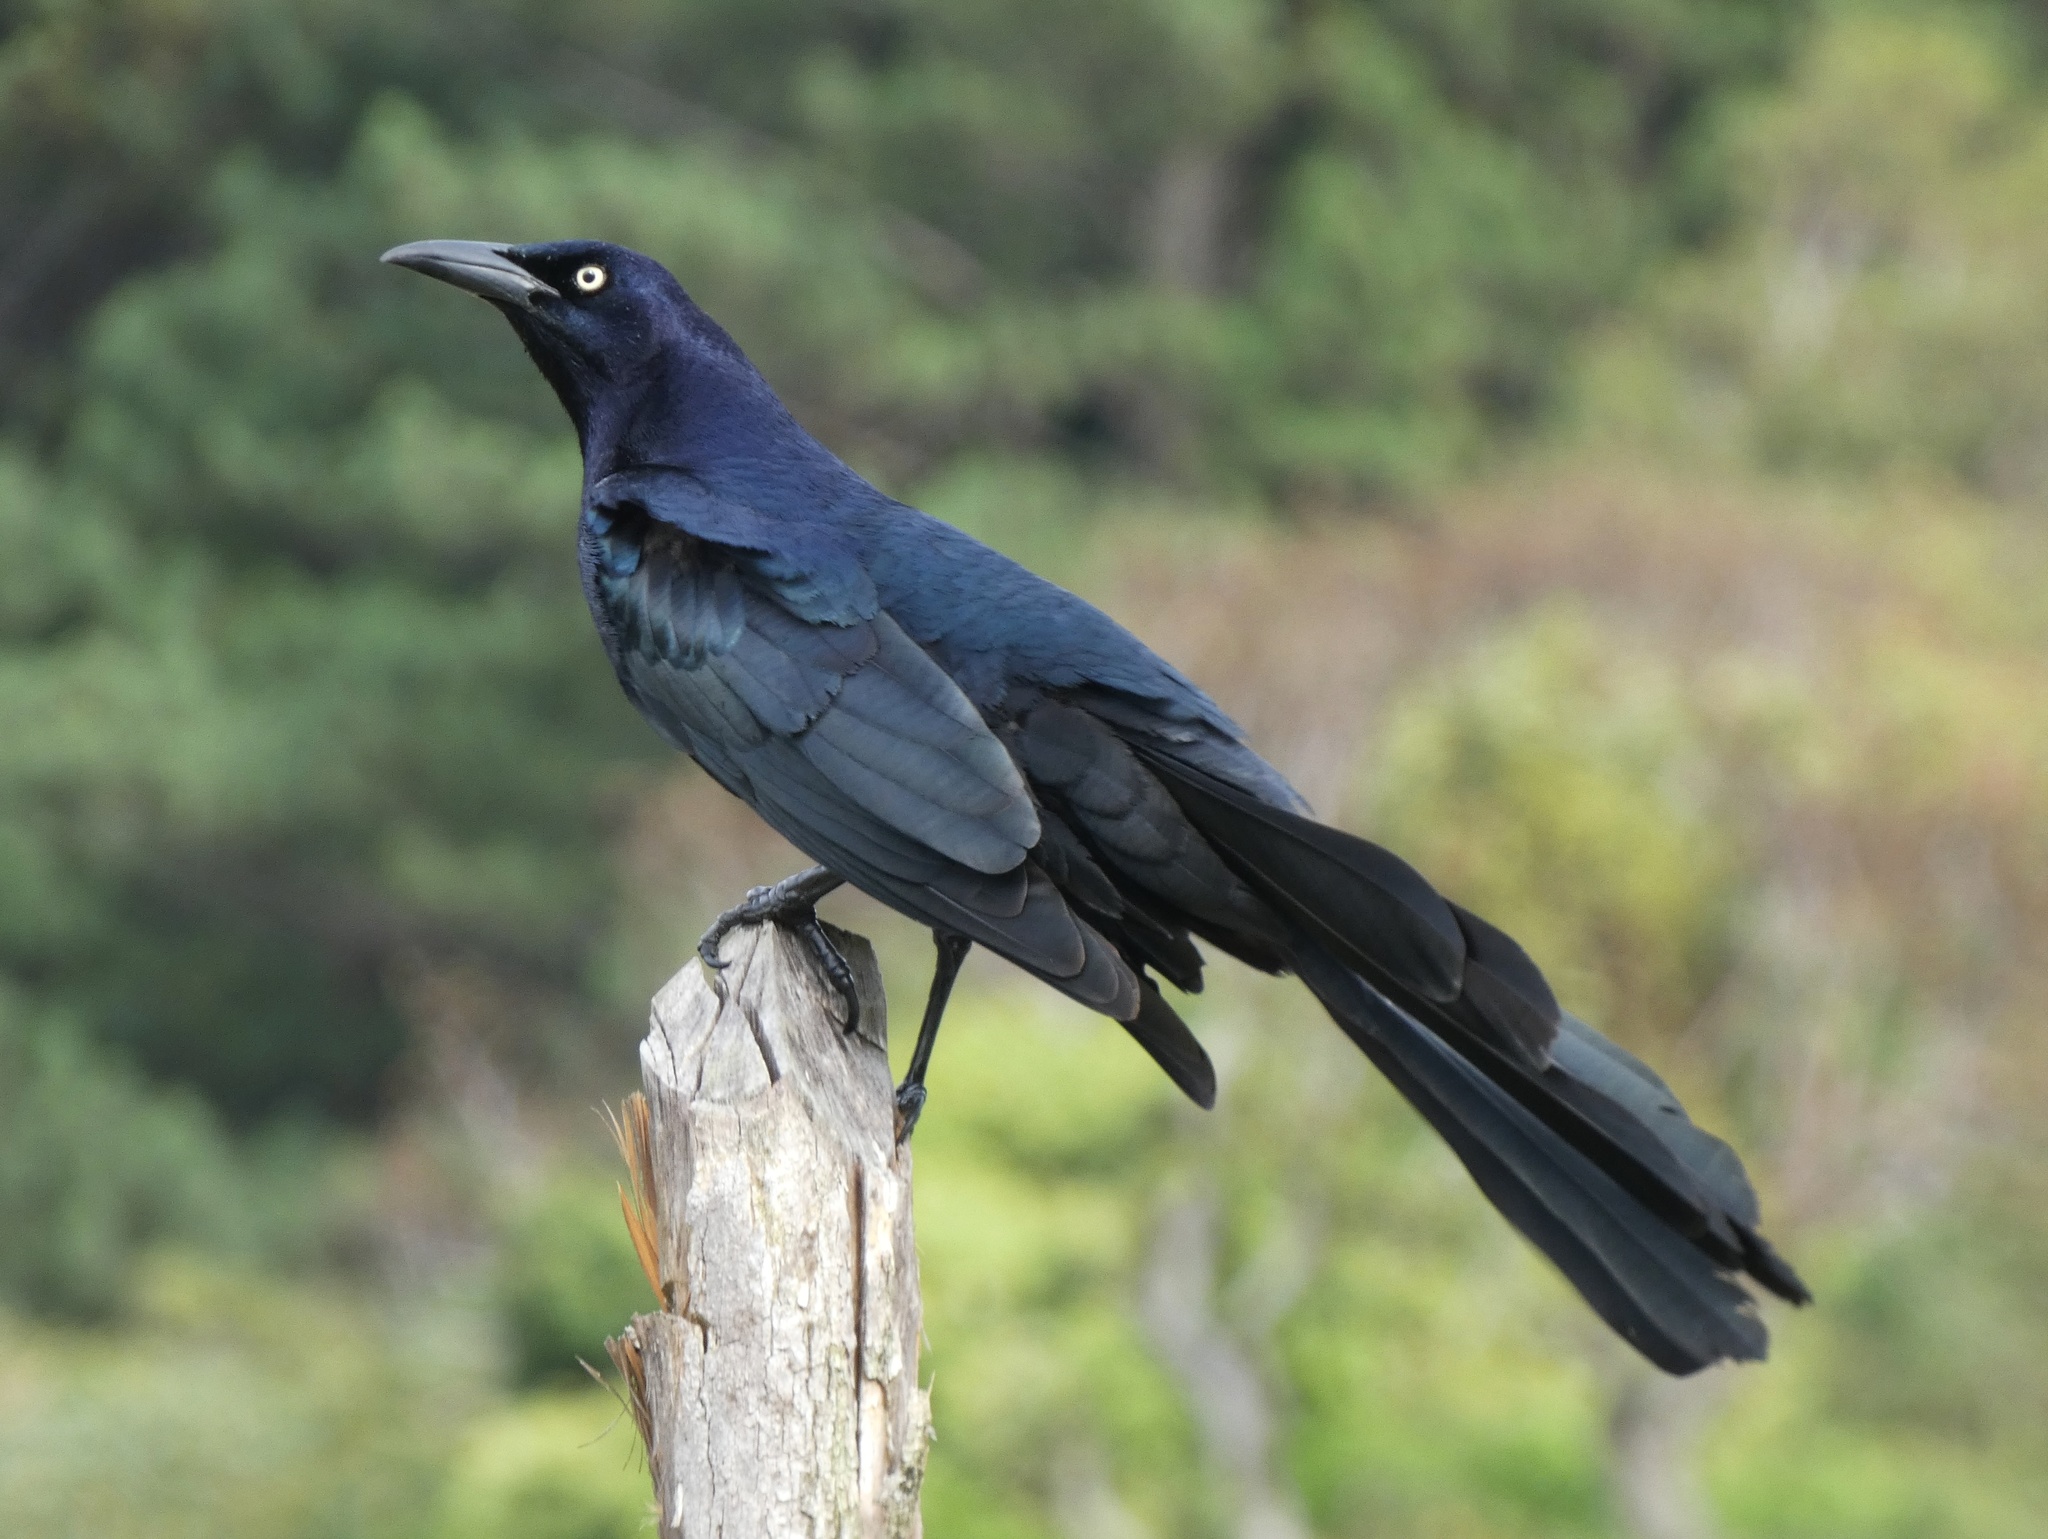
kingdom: Animalia
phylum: Chordata
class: Aves
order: Passeriformes
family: Icteridae
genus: Quiscalus
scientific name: Quiscalus mexicanus
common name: Great-tailed grackle
